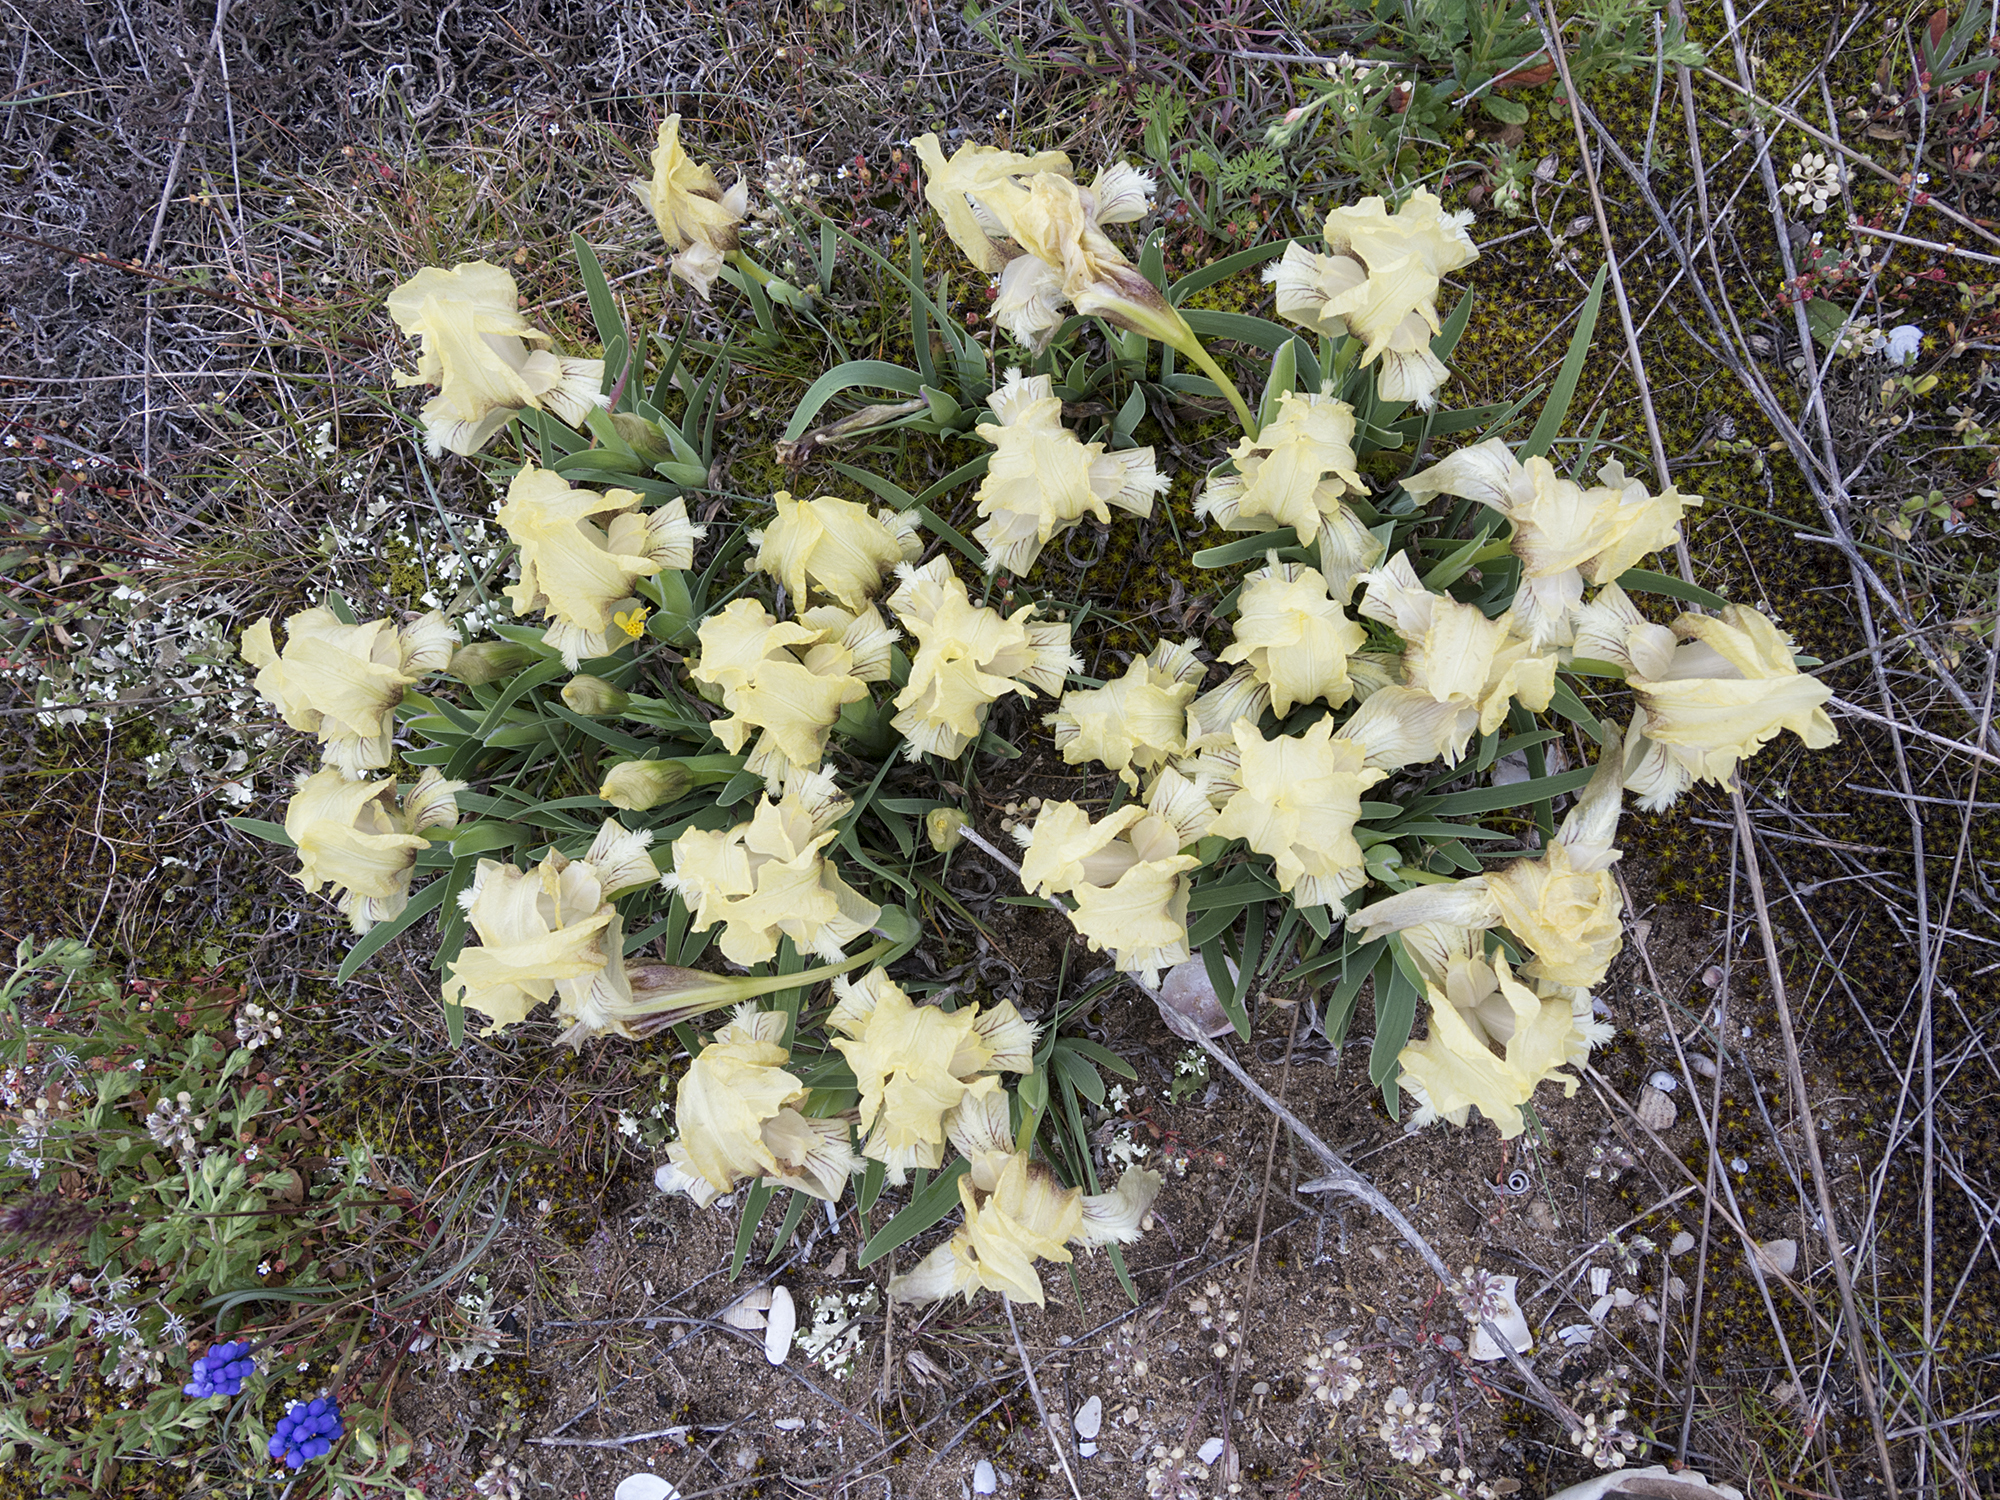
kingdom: Plantae
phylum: Tracheophyta
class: Liliopsida
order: Asparagales
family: Iridaceae
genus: Iris
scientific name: Iris suaveolens
